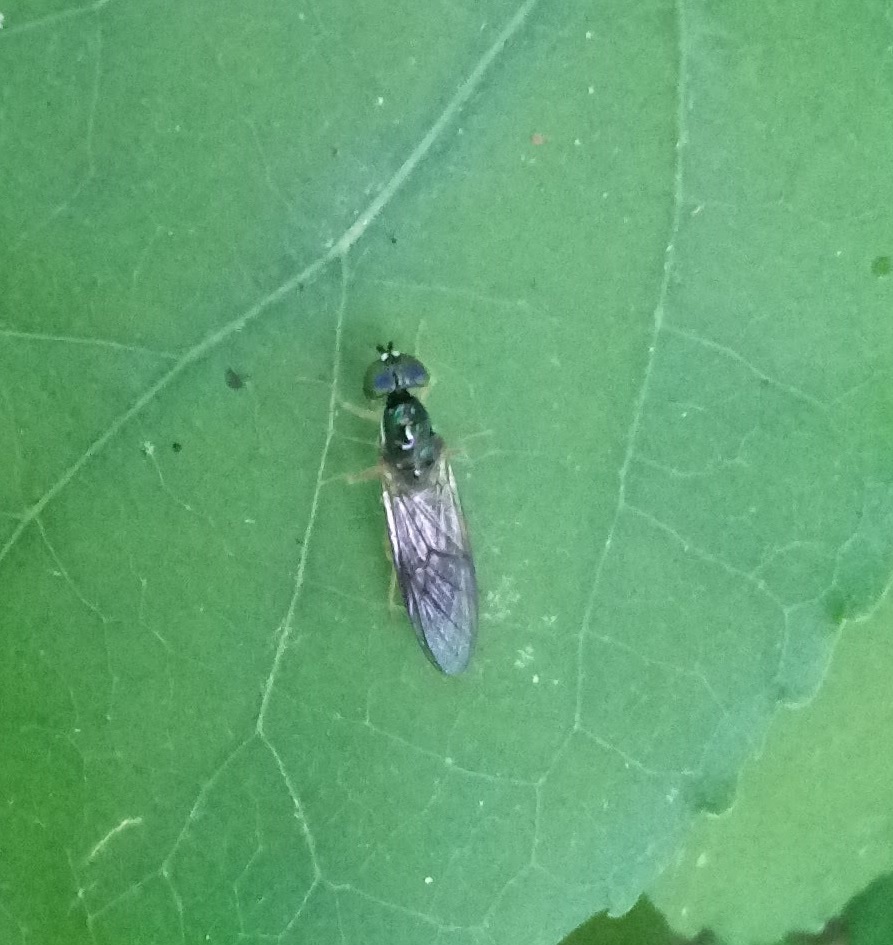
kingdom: Animalia
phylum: Arthropoda
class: Insecta
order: Diptera
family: Stratiomyidae
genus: Sargus
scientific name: Sargus decorus
